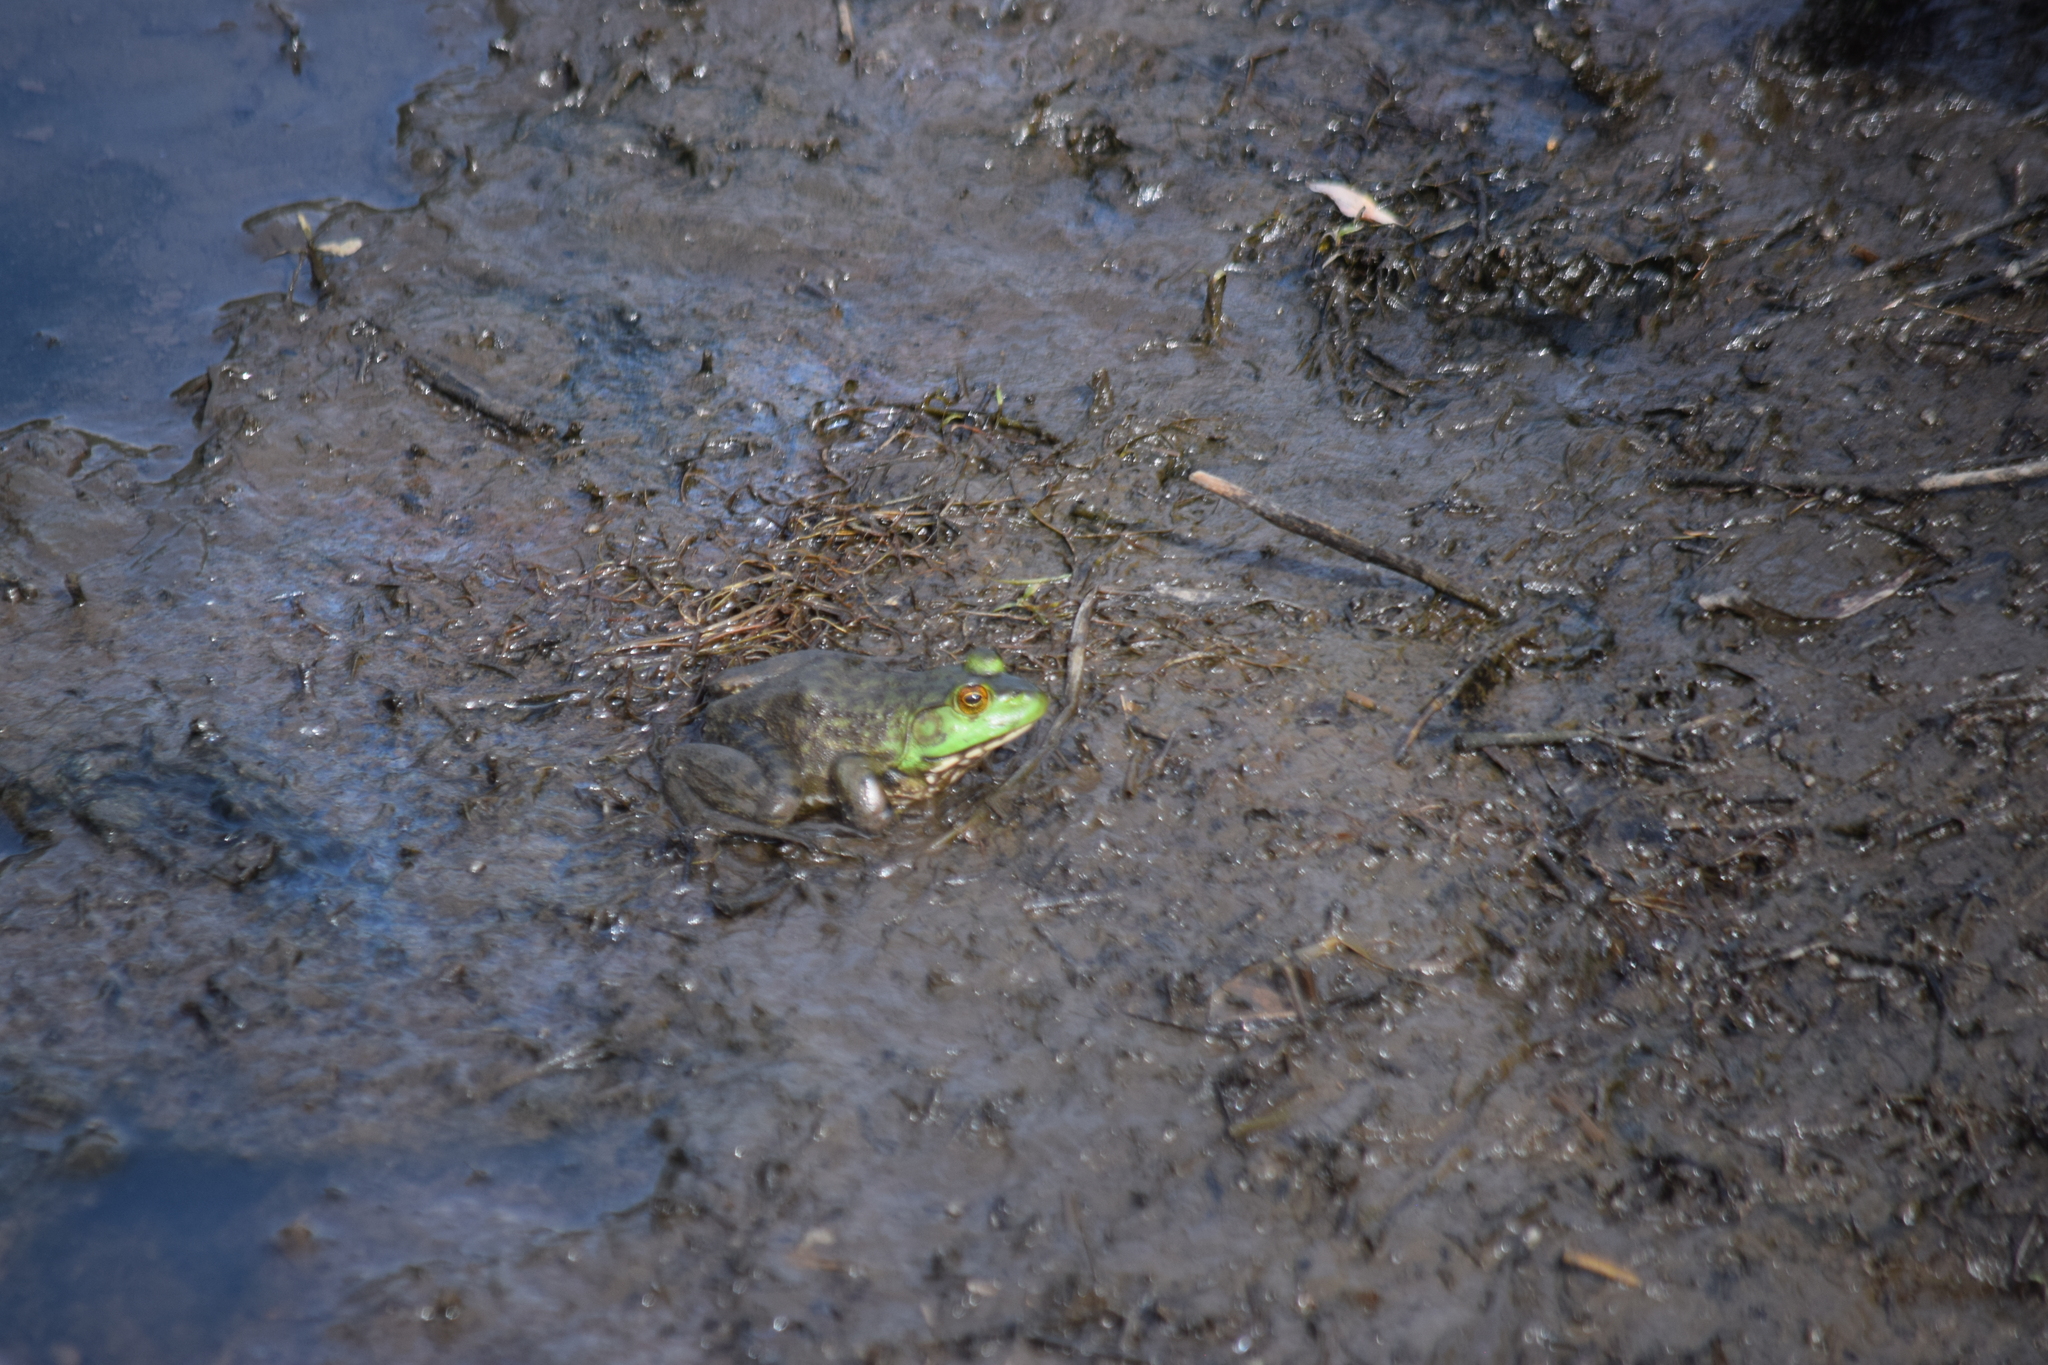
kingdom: Animalia
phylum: Chordata
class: Amphibia
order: Anura
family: Ranidae
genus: Lithobates
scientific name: Lithobates catesbeianus
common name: American bullfrog
